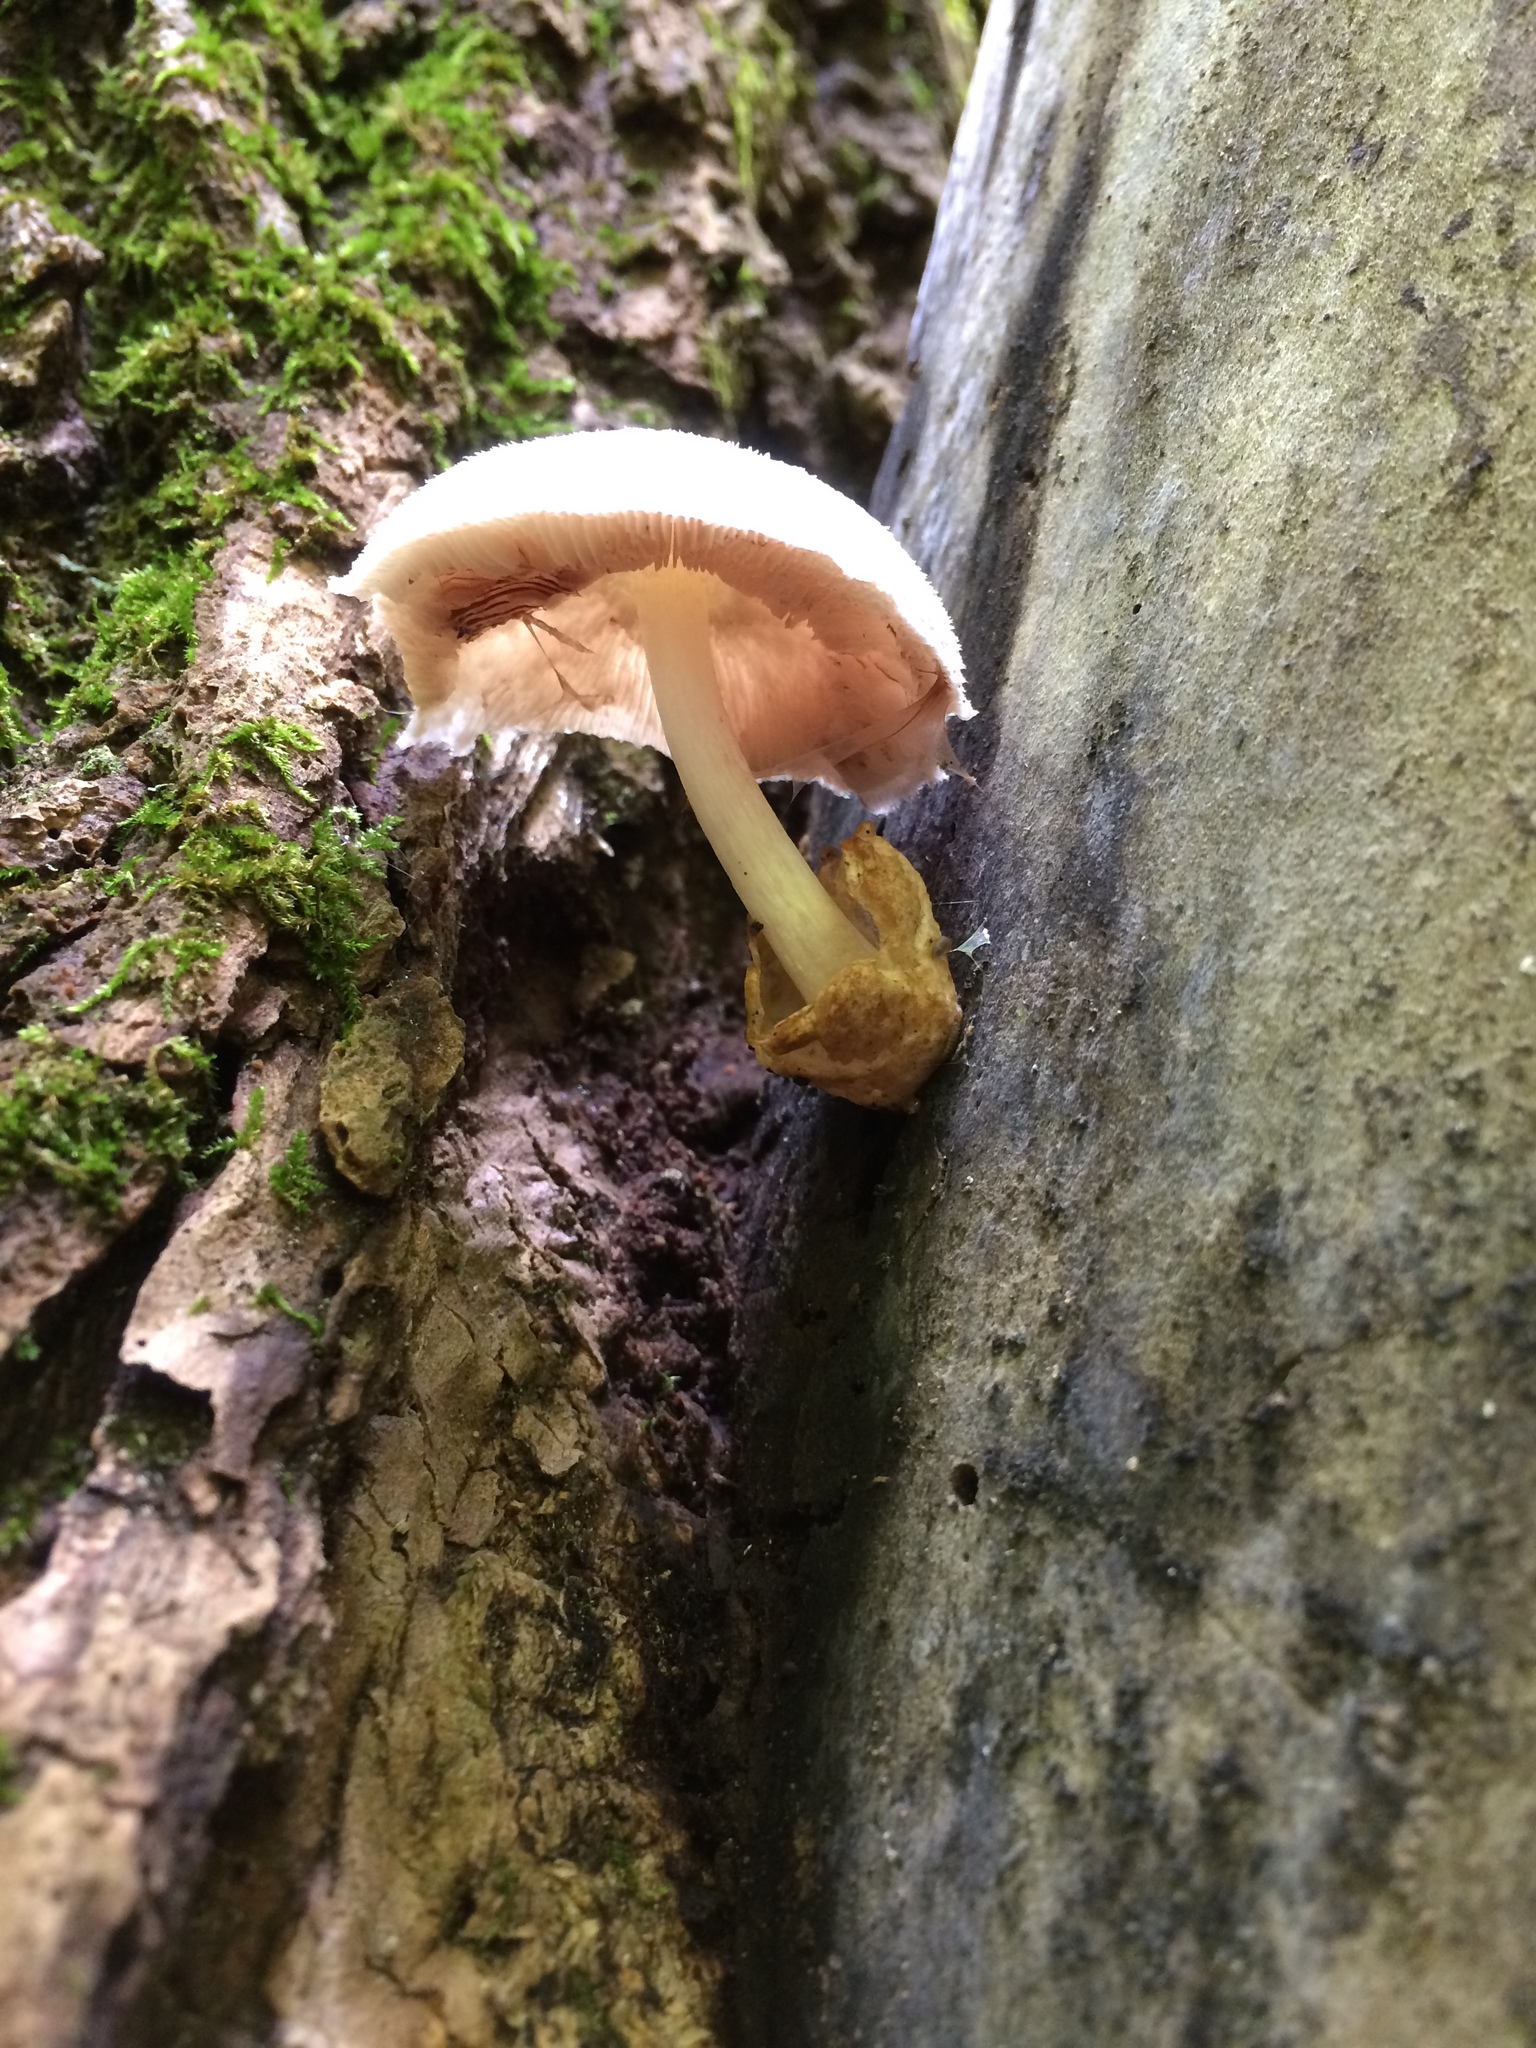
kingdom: Fungi
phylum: Basidiomycota
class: Agaricomycetes
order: Agaricales
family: Pluteaceae
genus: Volvariella
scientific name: Volvariella bombycina
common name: Silky rosegill
